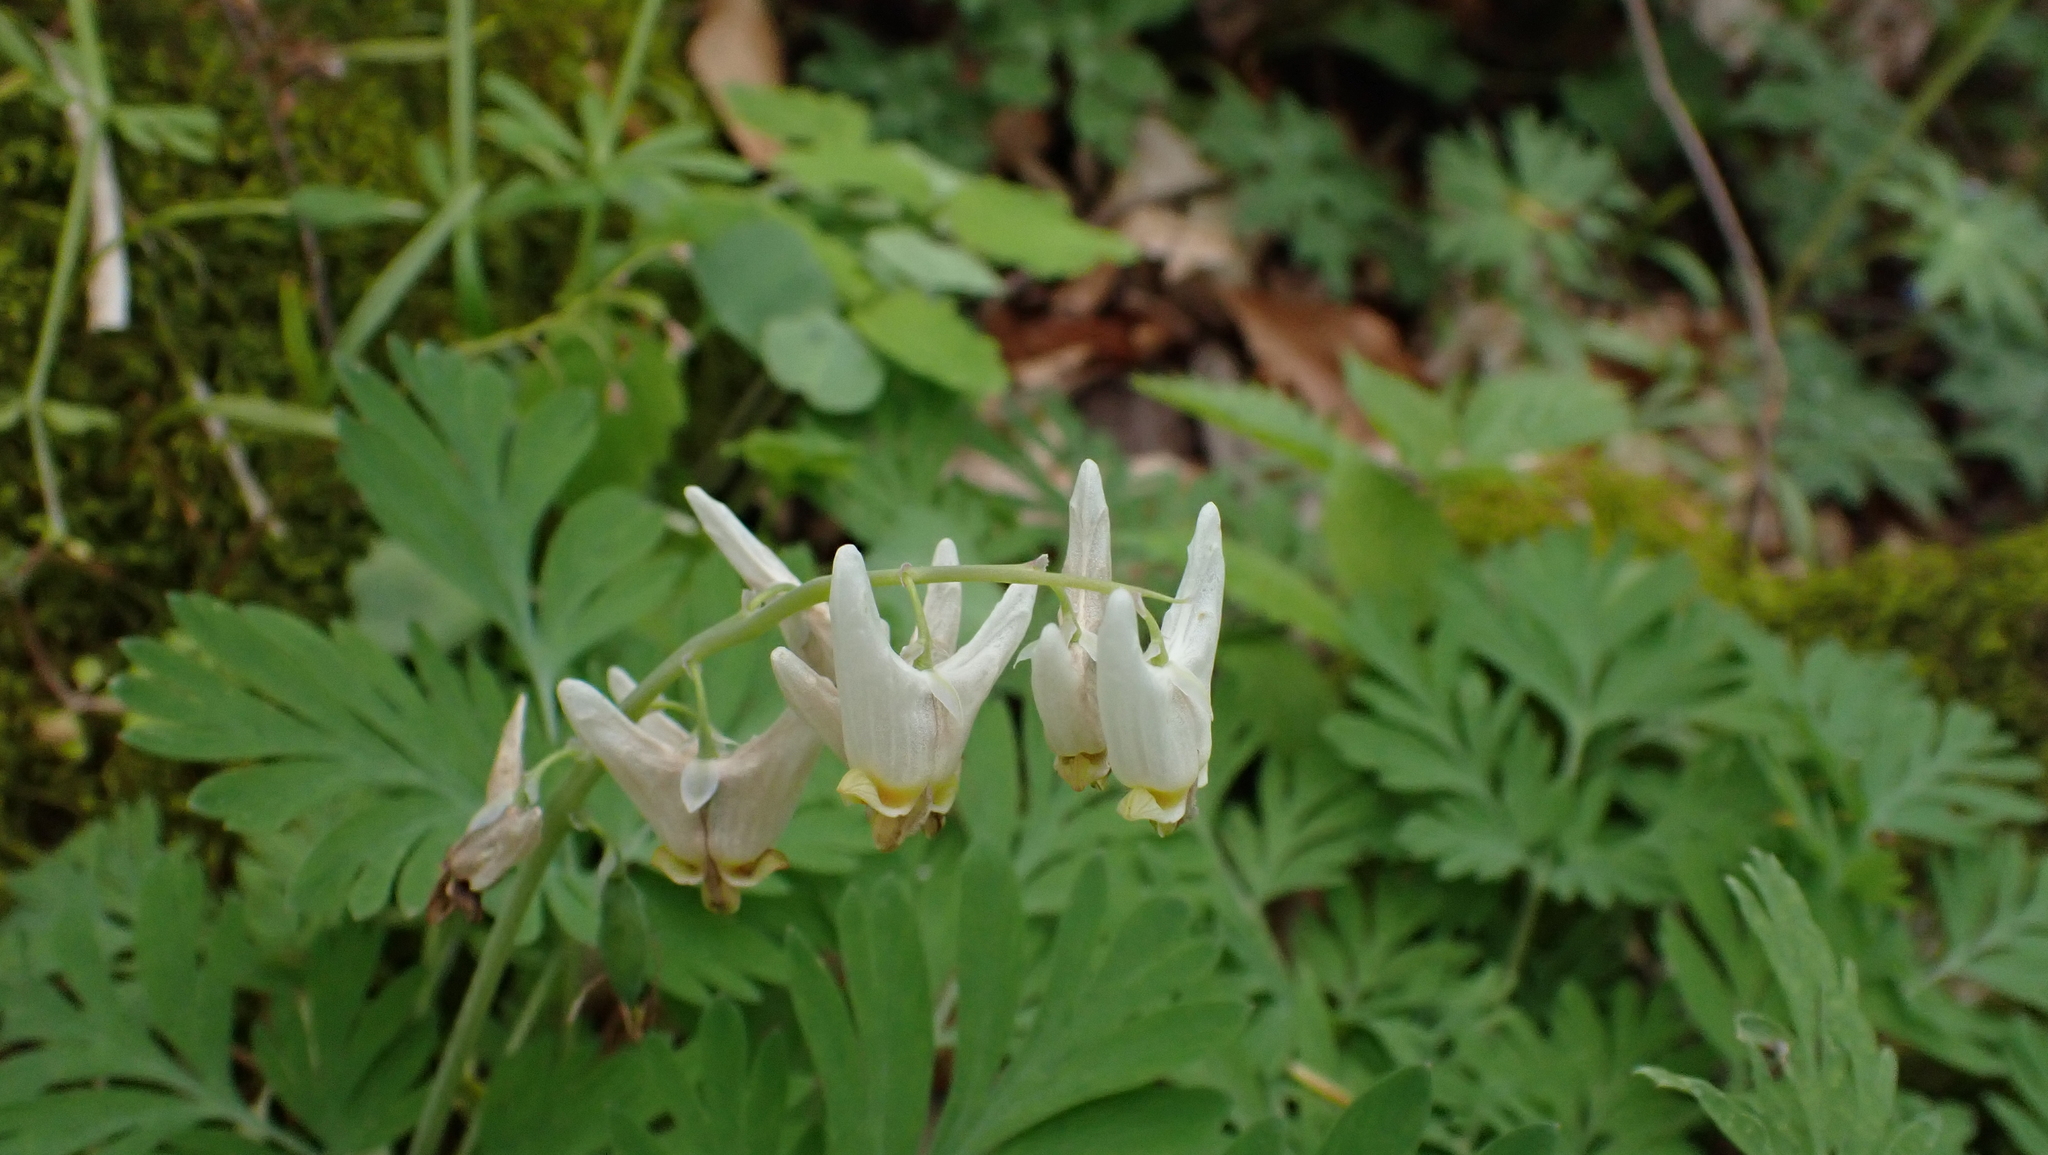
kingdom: Plantae
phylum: Tracheophyta
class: Magnoliopsida
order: Ranunculales
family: Papaveraceae
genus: Dicentra
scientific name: Dicentra cucullaria
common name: Dutchman's breeches
